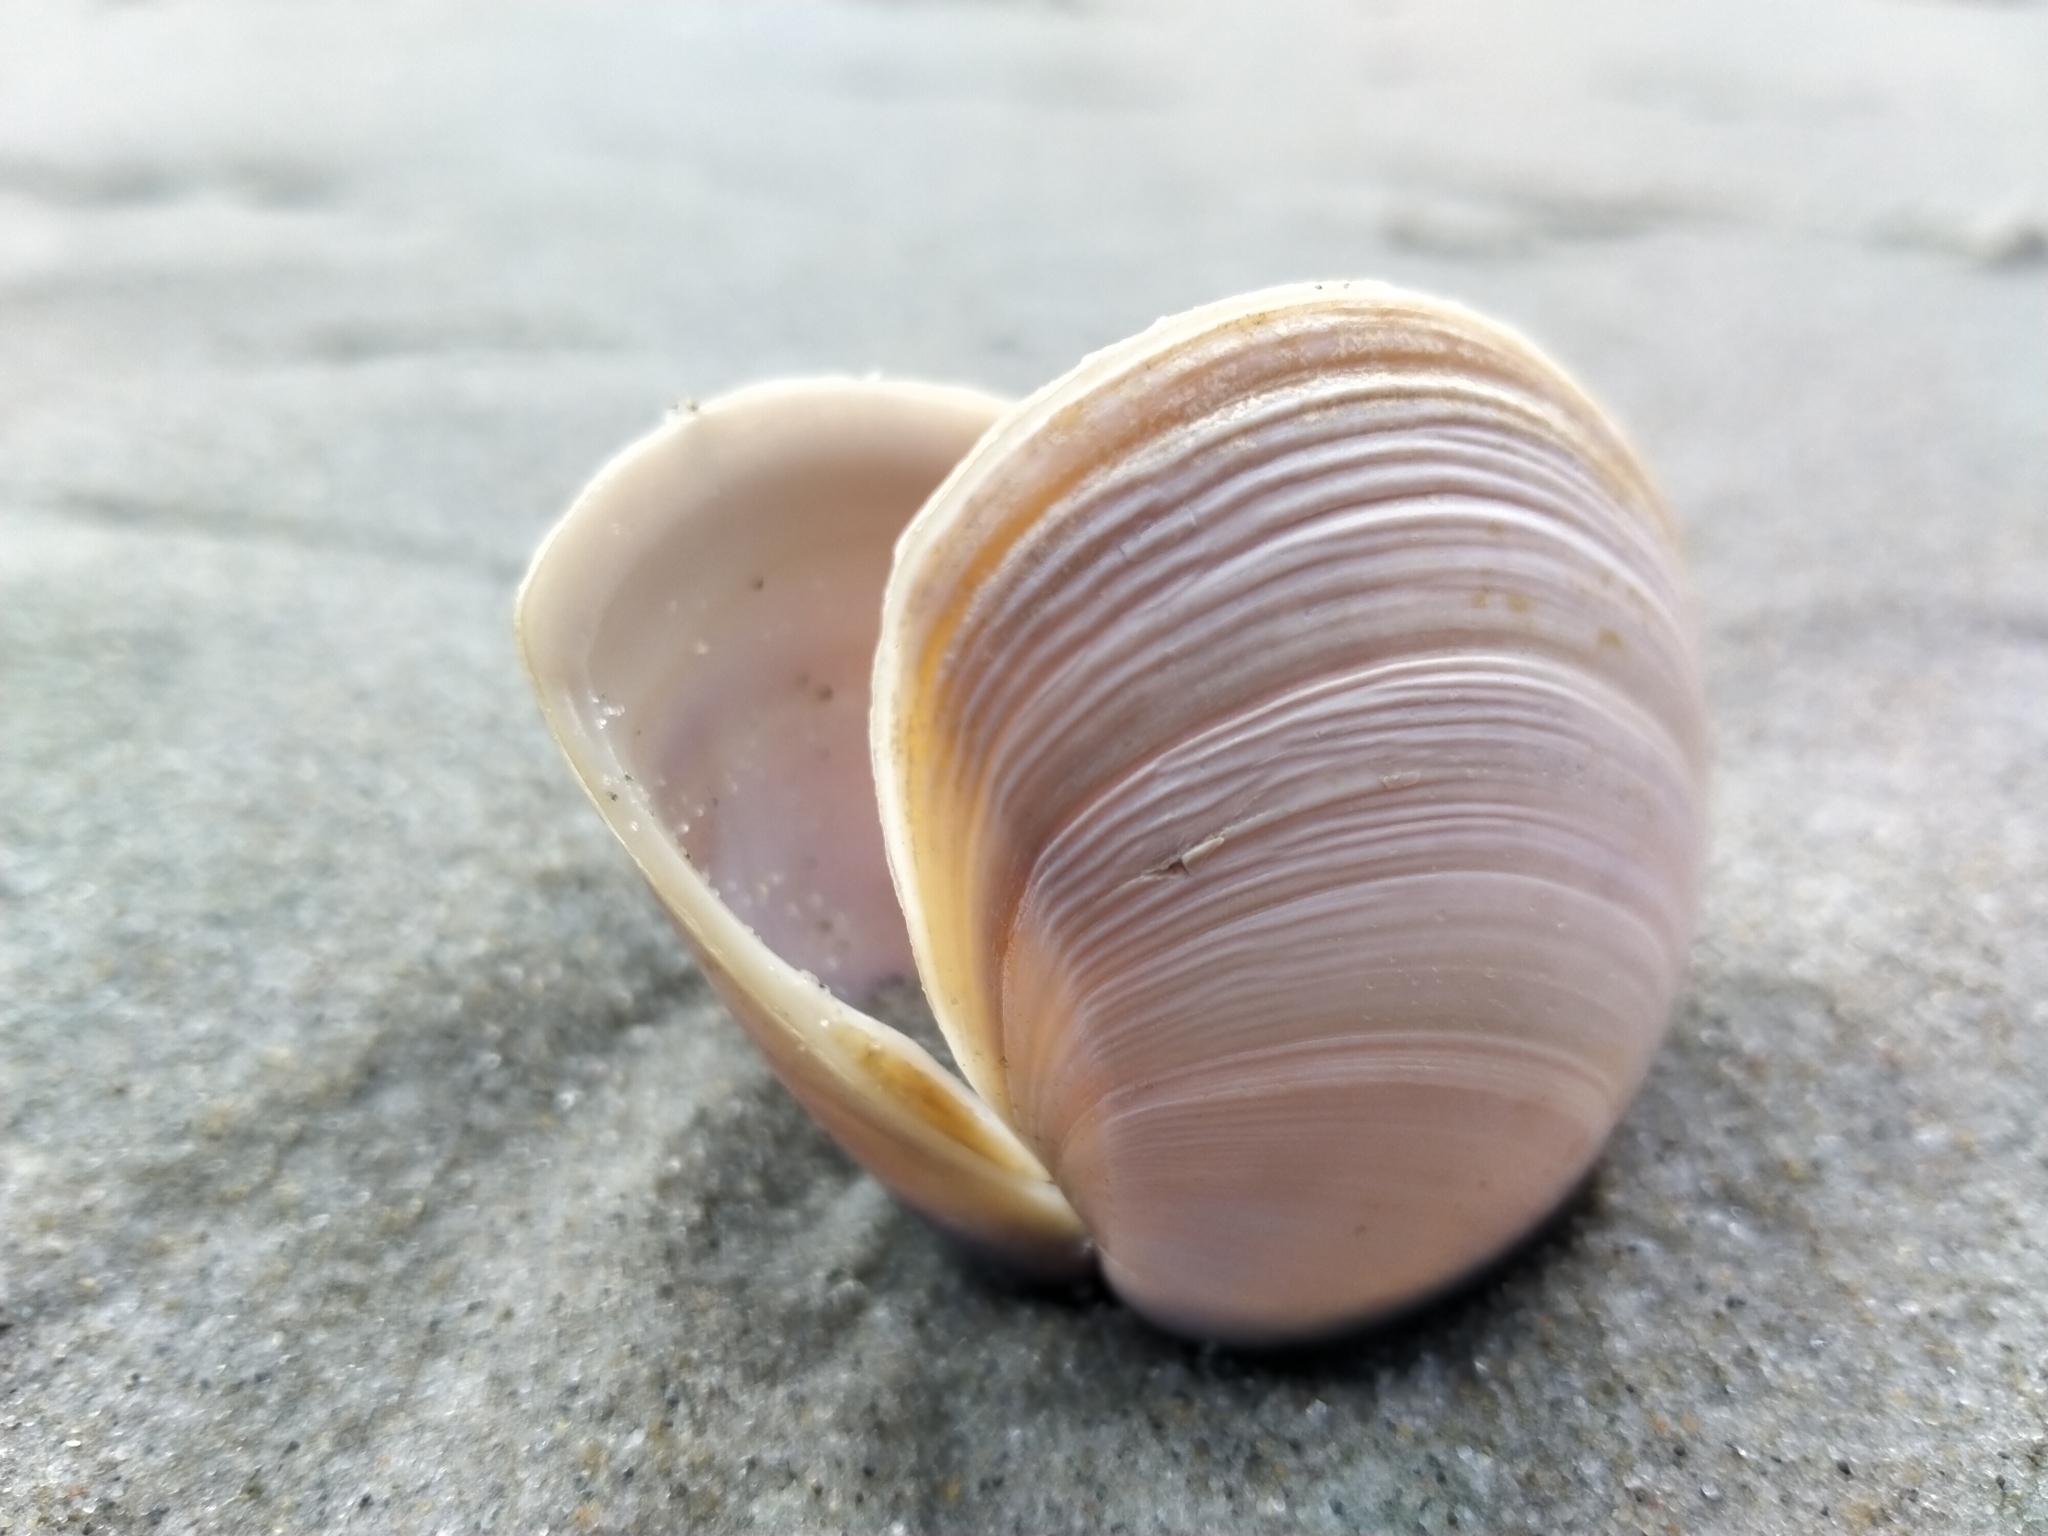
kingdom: Animalia
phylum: Mollusca
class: Bivalvia
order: Venerida
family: Mactridae
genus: Crassula
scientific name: Crassula aequilatera
